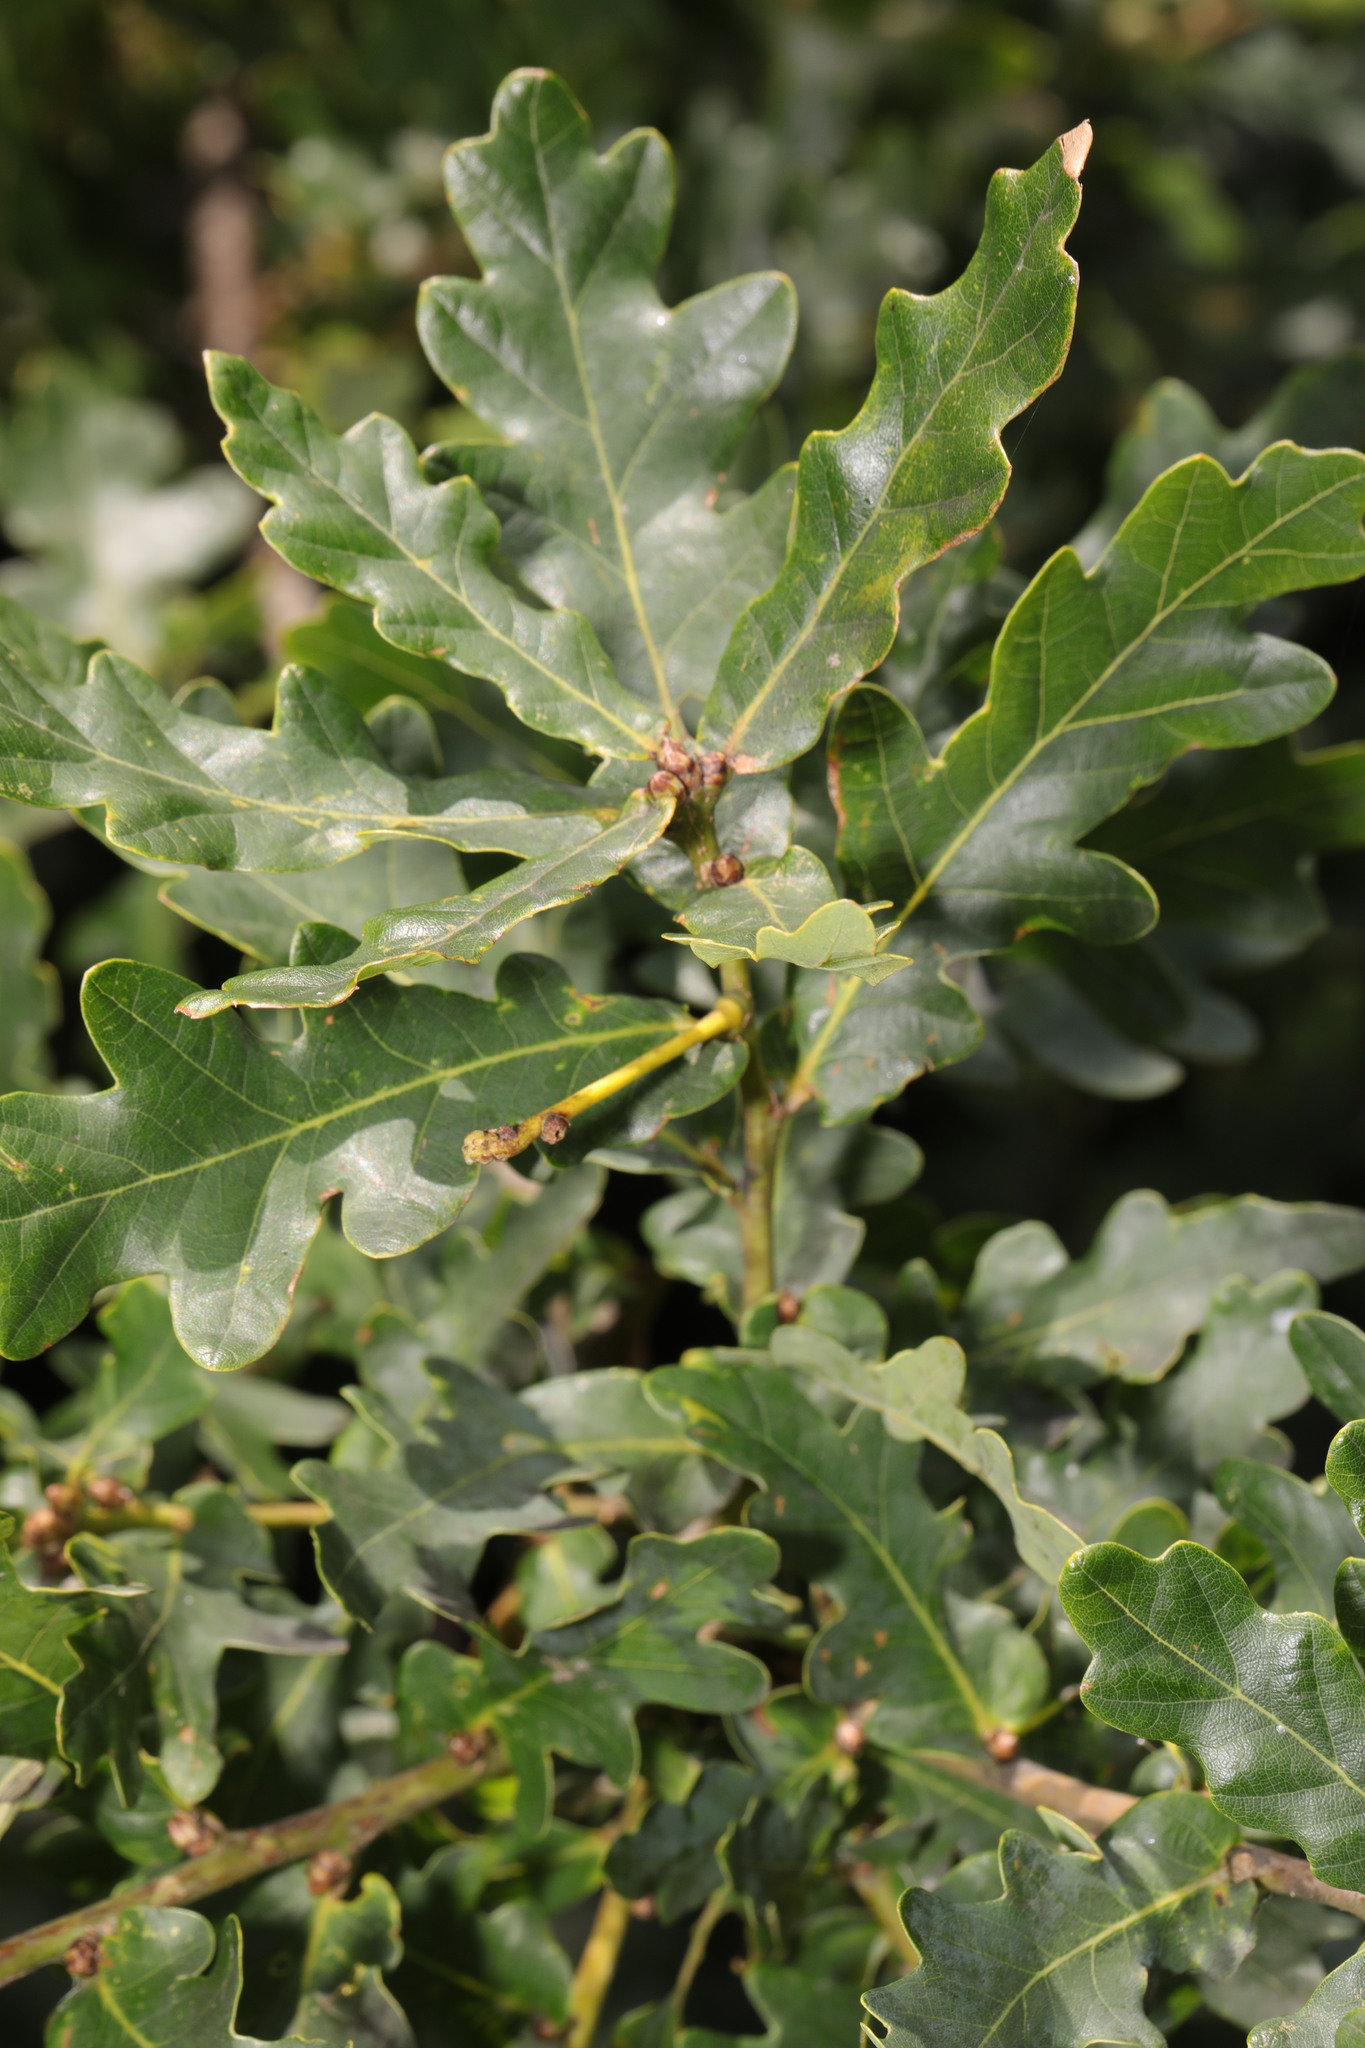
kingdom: Plantae
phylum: Tracheophyta
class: Magnoliopsida
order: Fagales
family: Fagaceae
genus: Quercus
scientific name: Quercus robur
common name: Pedunculate oak
